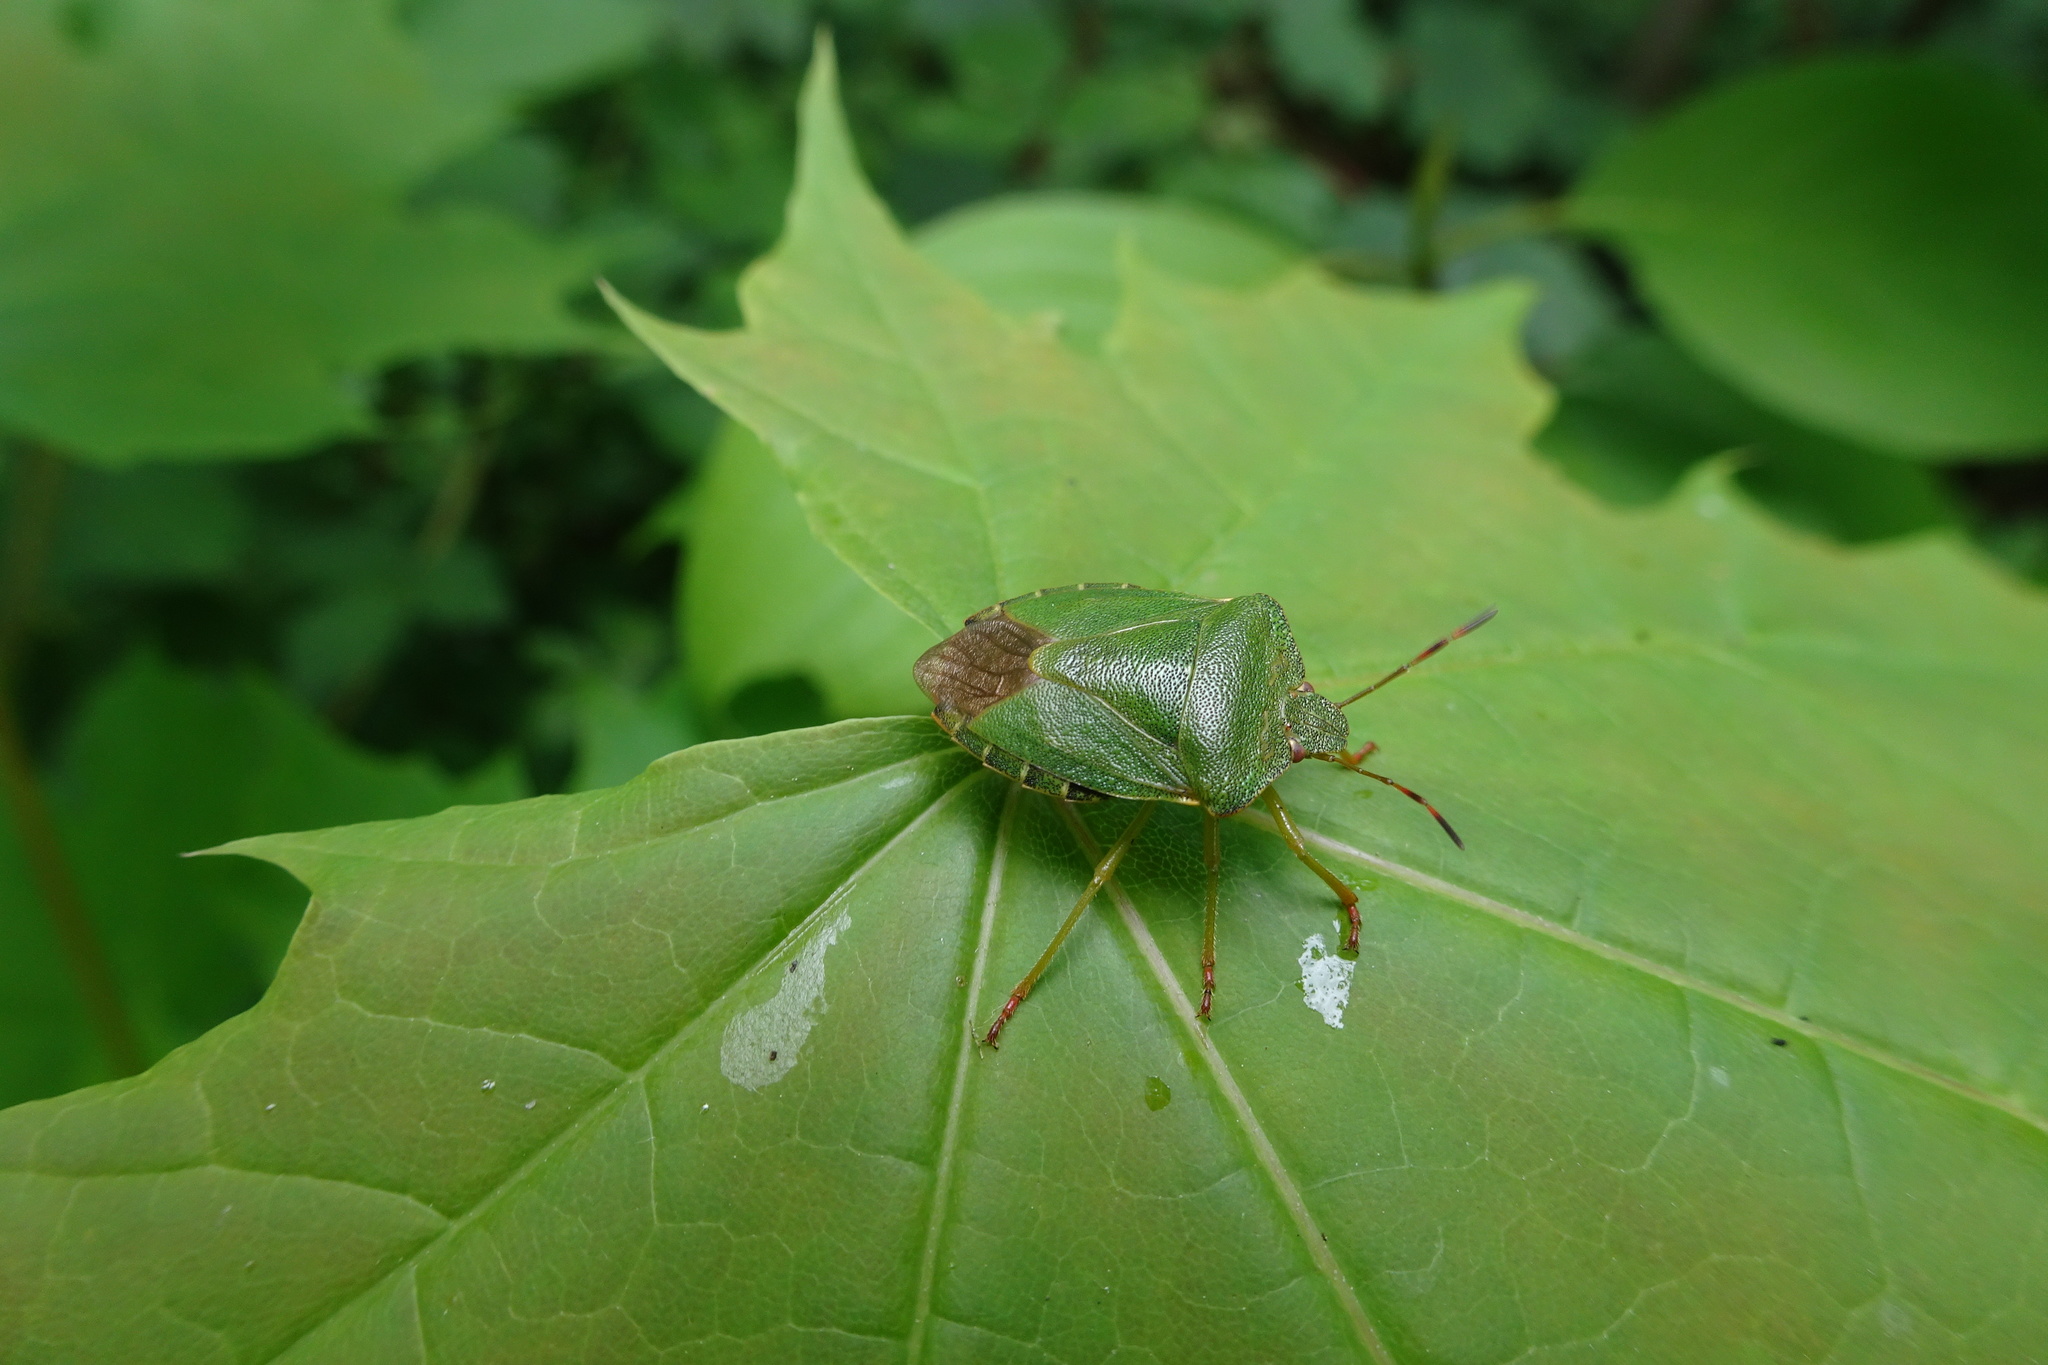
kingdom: Animalia
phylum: Arthropoda
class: Insecta
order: Hemiptera
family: Pentatomidae
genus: Palomena
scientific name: Palomena prasina
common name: Green shieldbug
